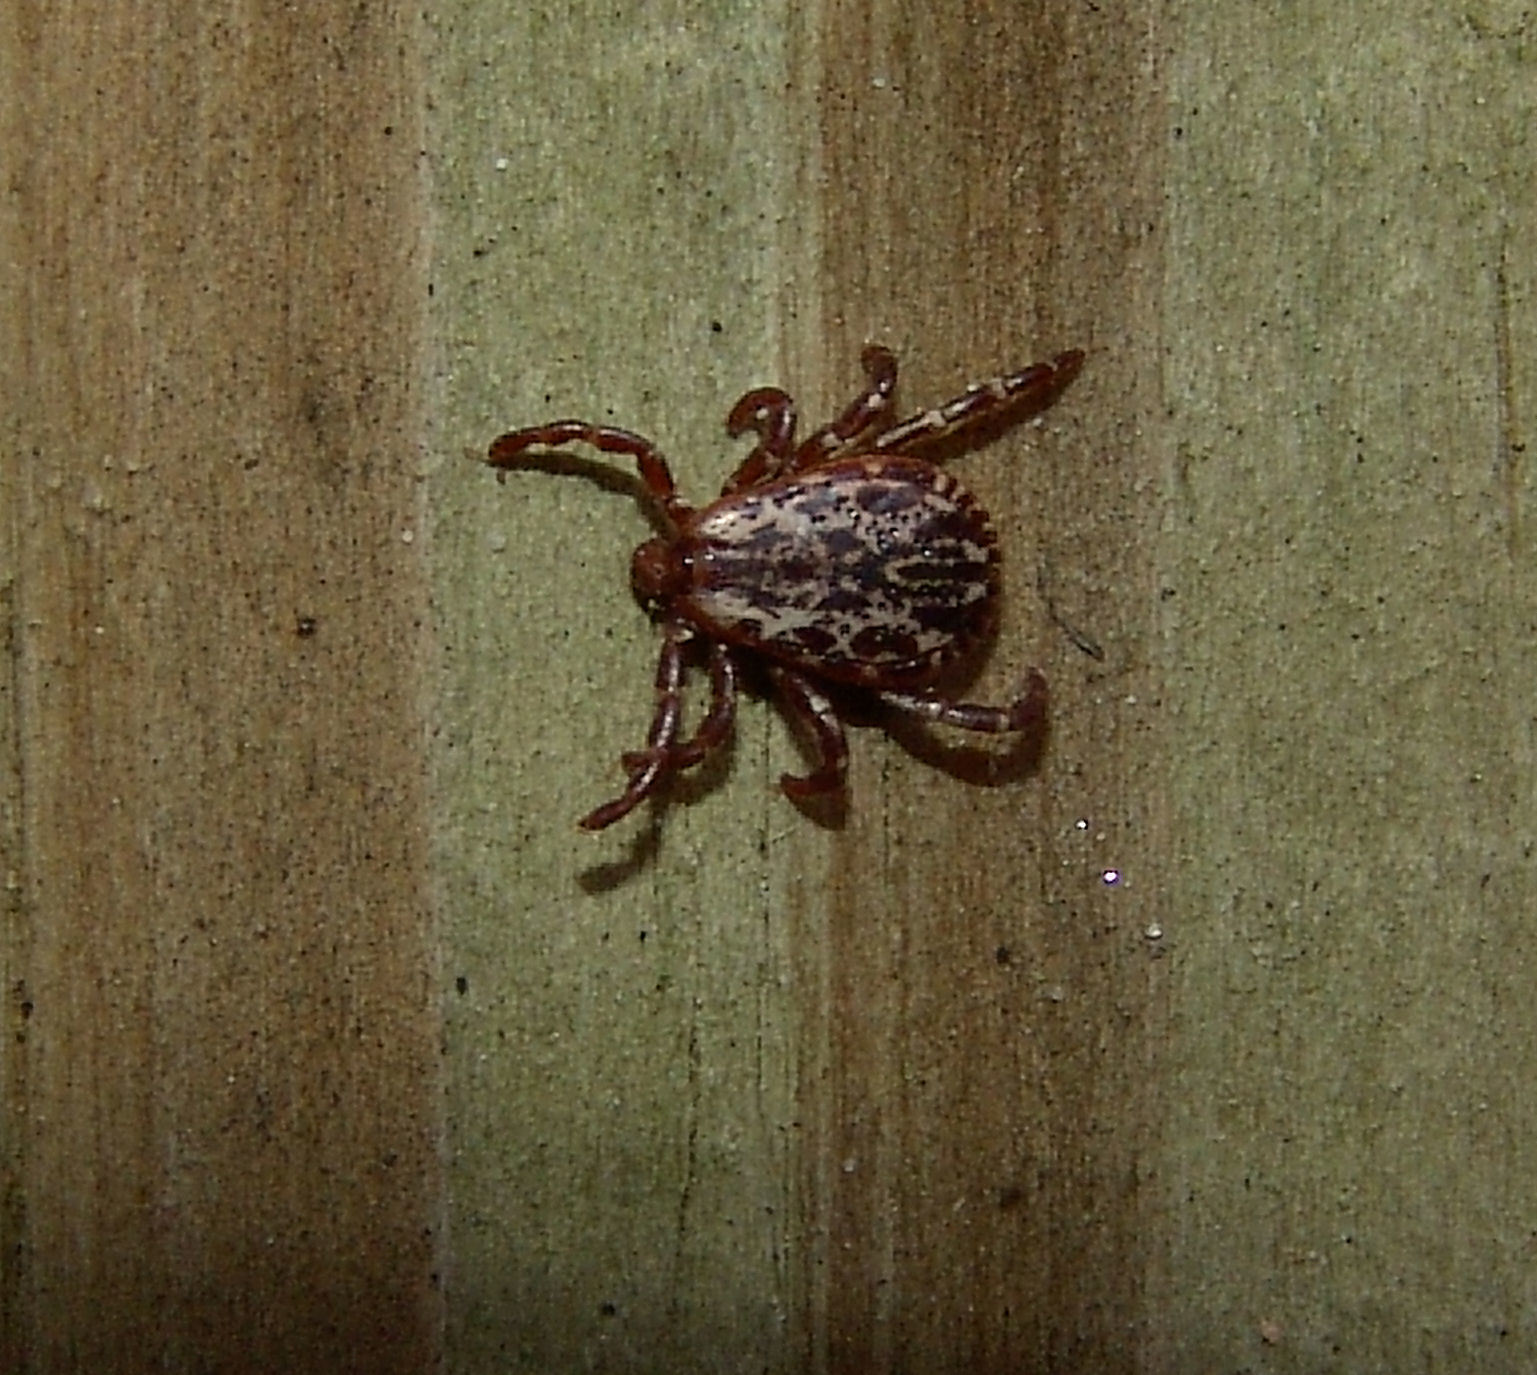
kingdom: Animalia
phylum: Arthropoda
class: Arachnida
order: Ixodida
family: Ixodidae
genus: Dermacentor
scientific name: Dermacentor variabilis
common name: American dog tick
